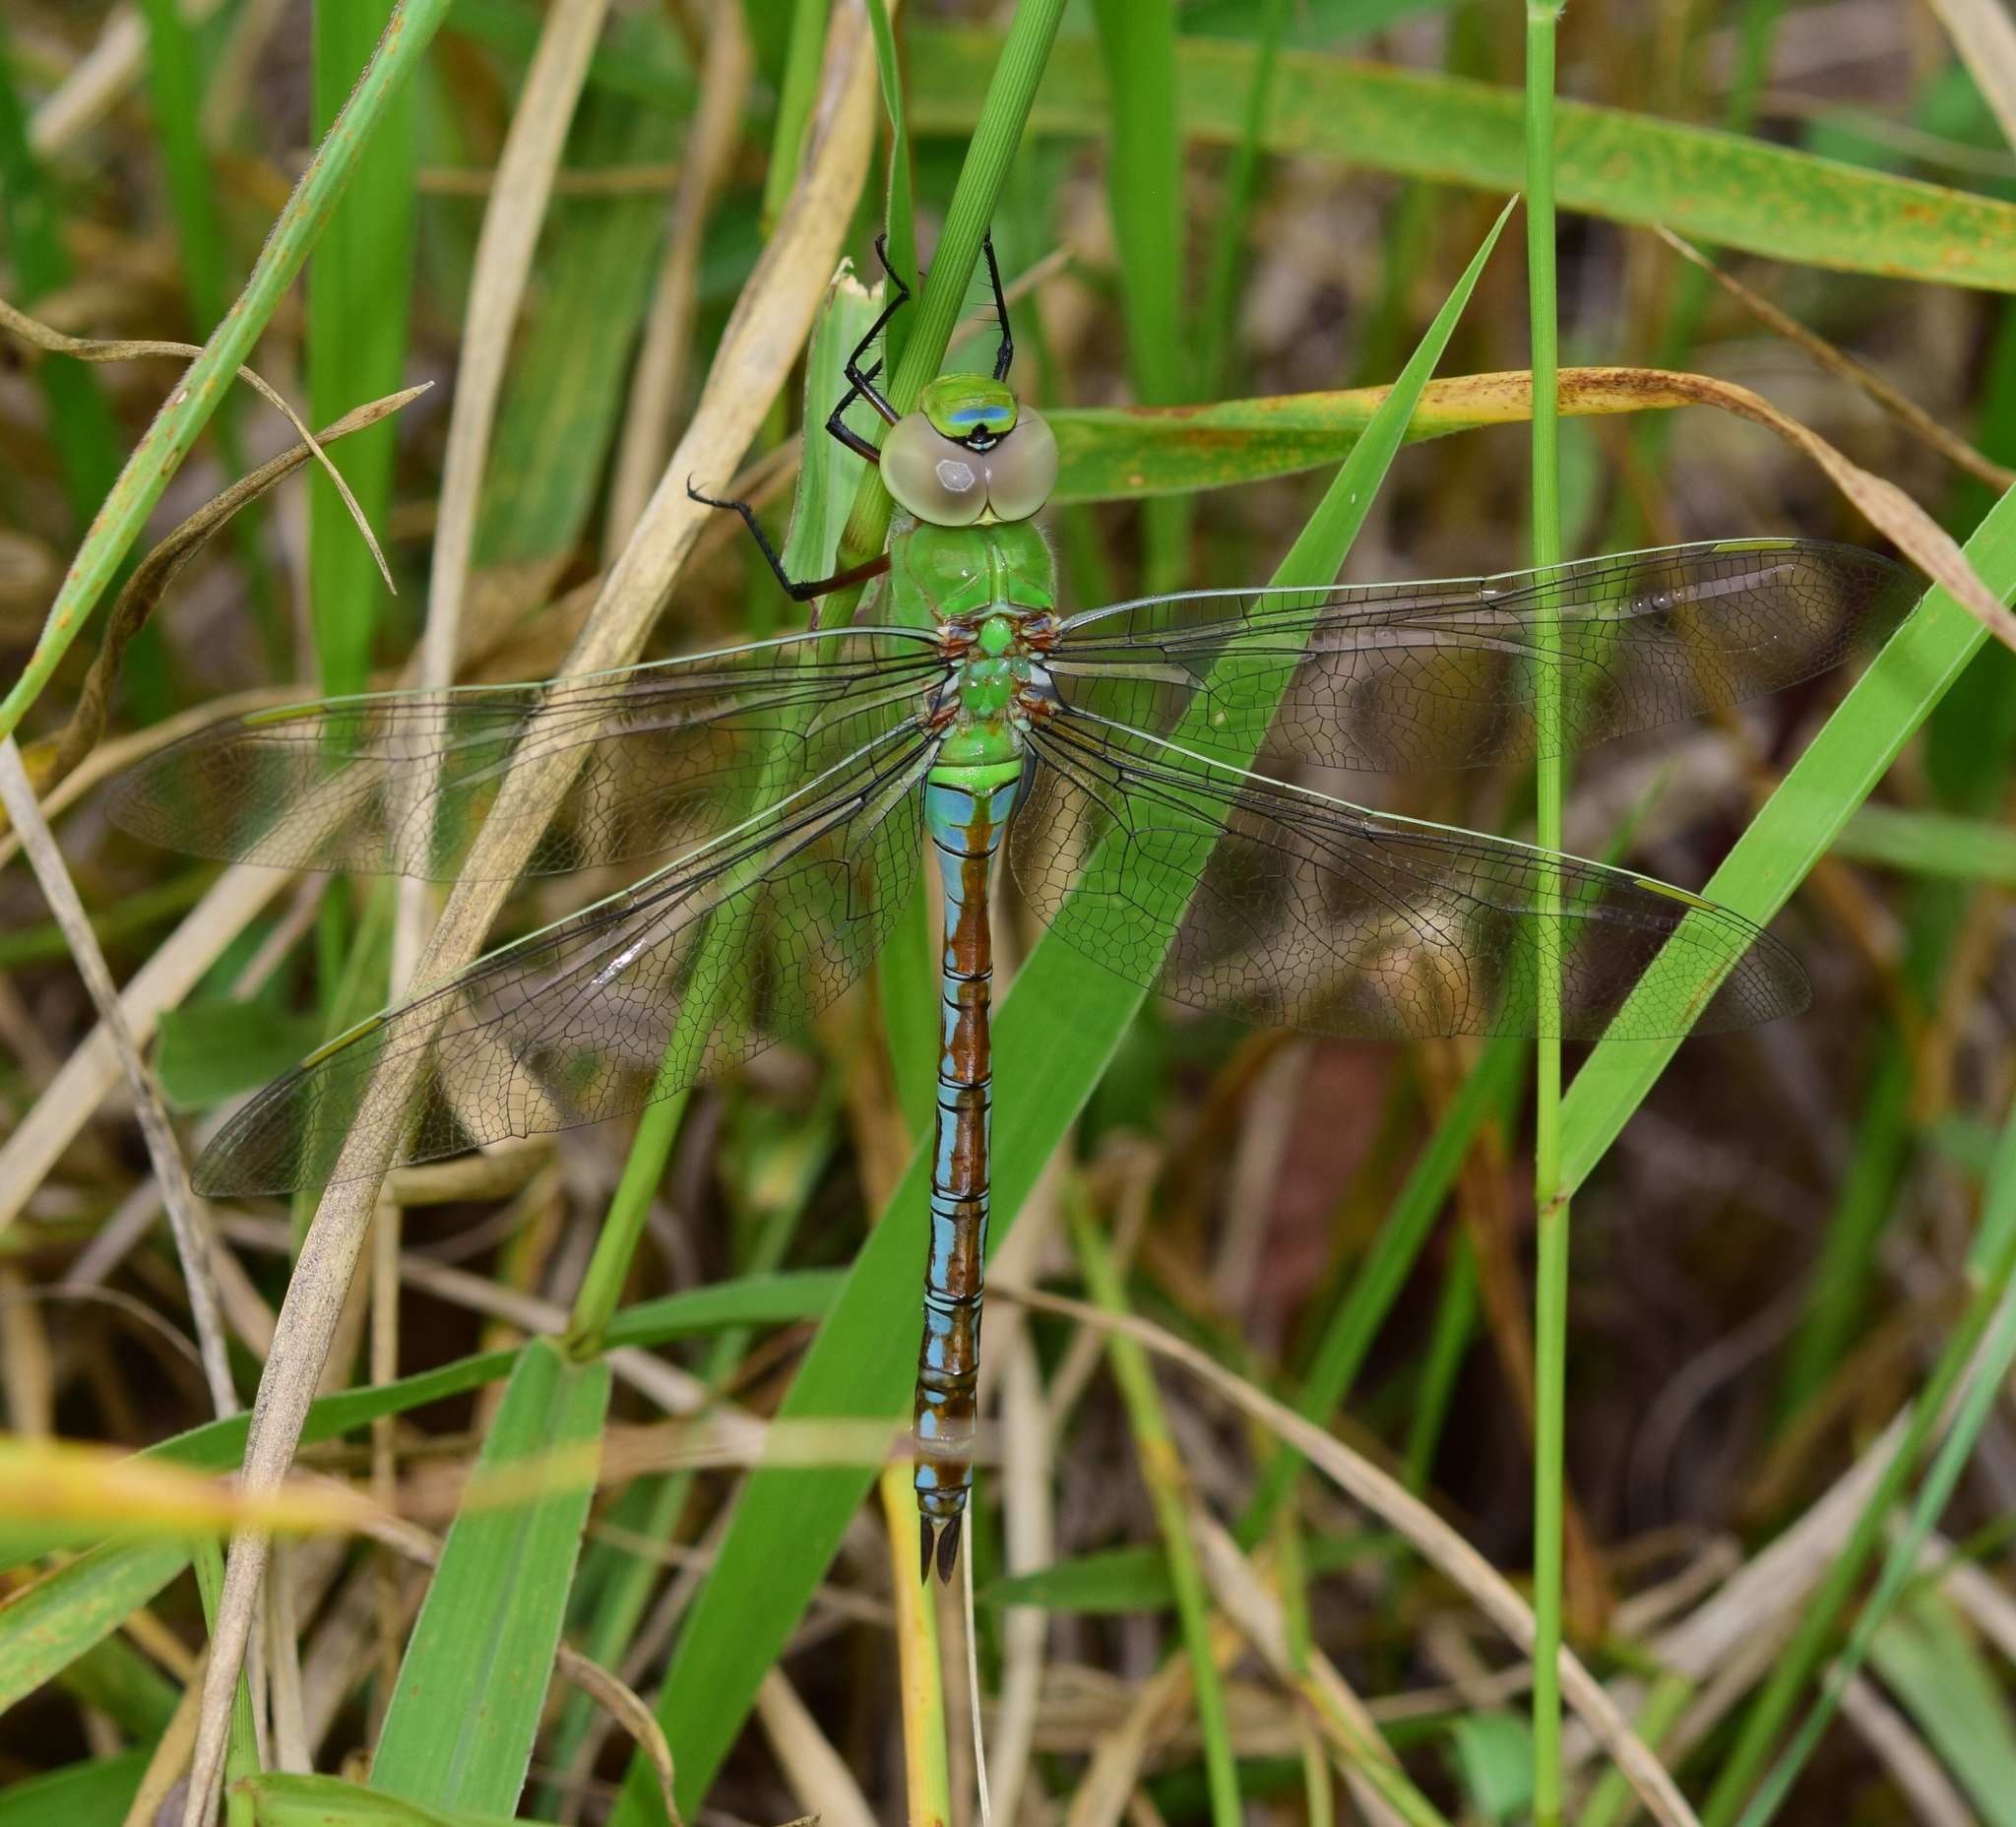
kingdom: Animalia
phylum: Arthropoda
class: Insecta
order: Odonata
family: Aeshnidae
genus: Anax
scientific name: Anax imperator
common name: Emperor dragonfly
